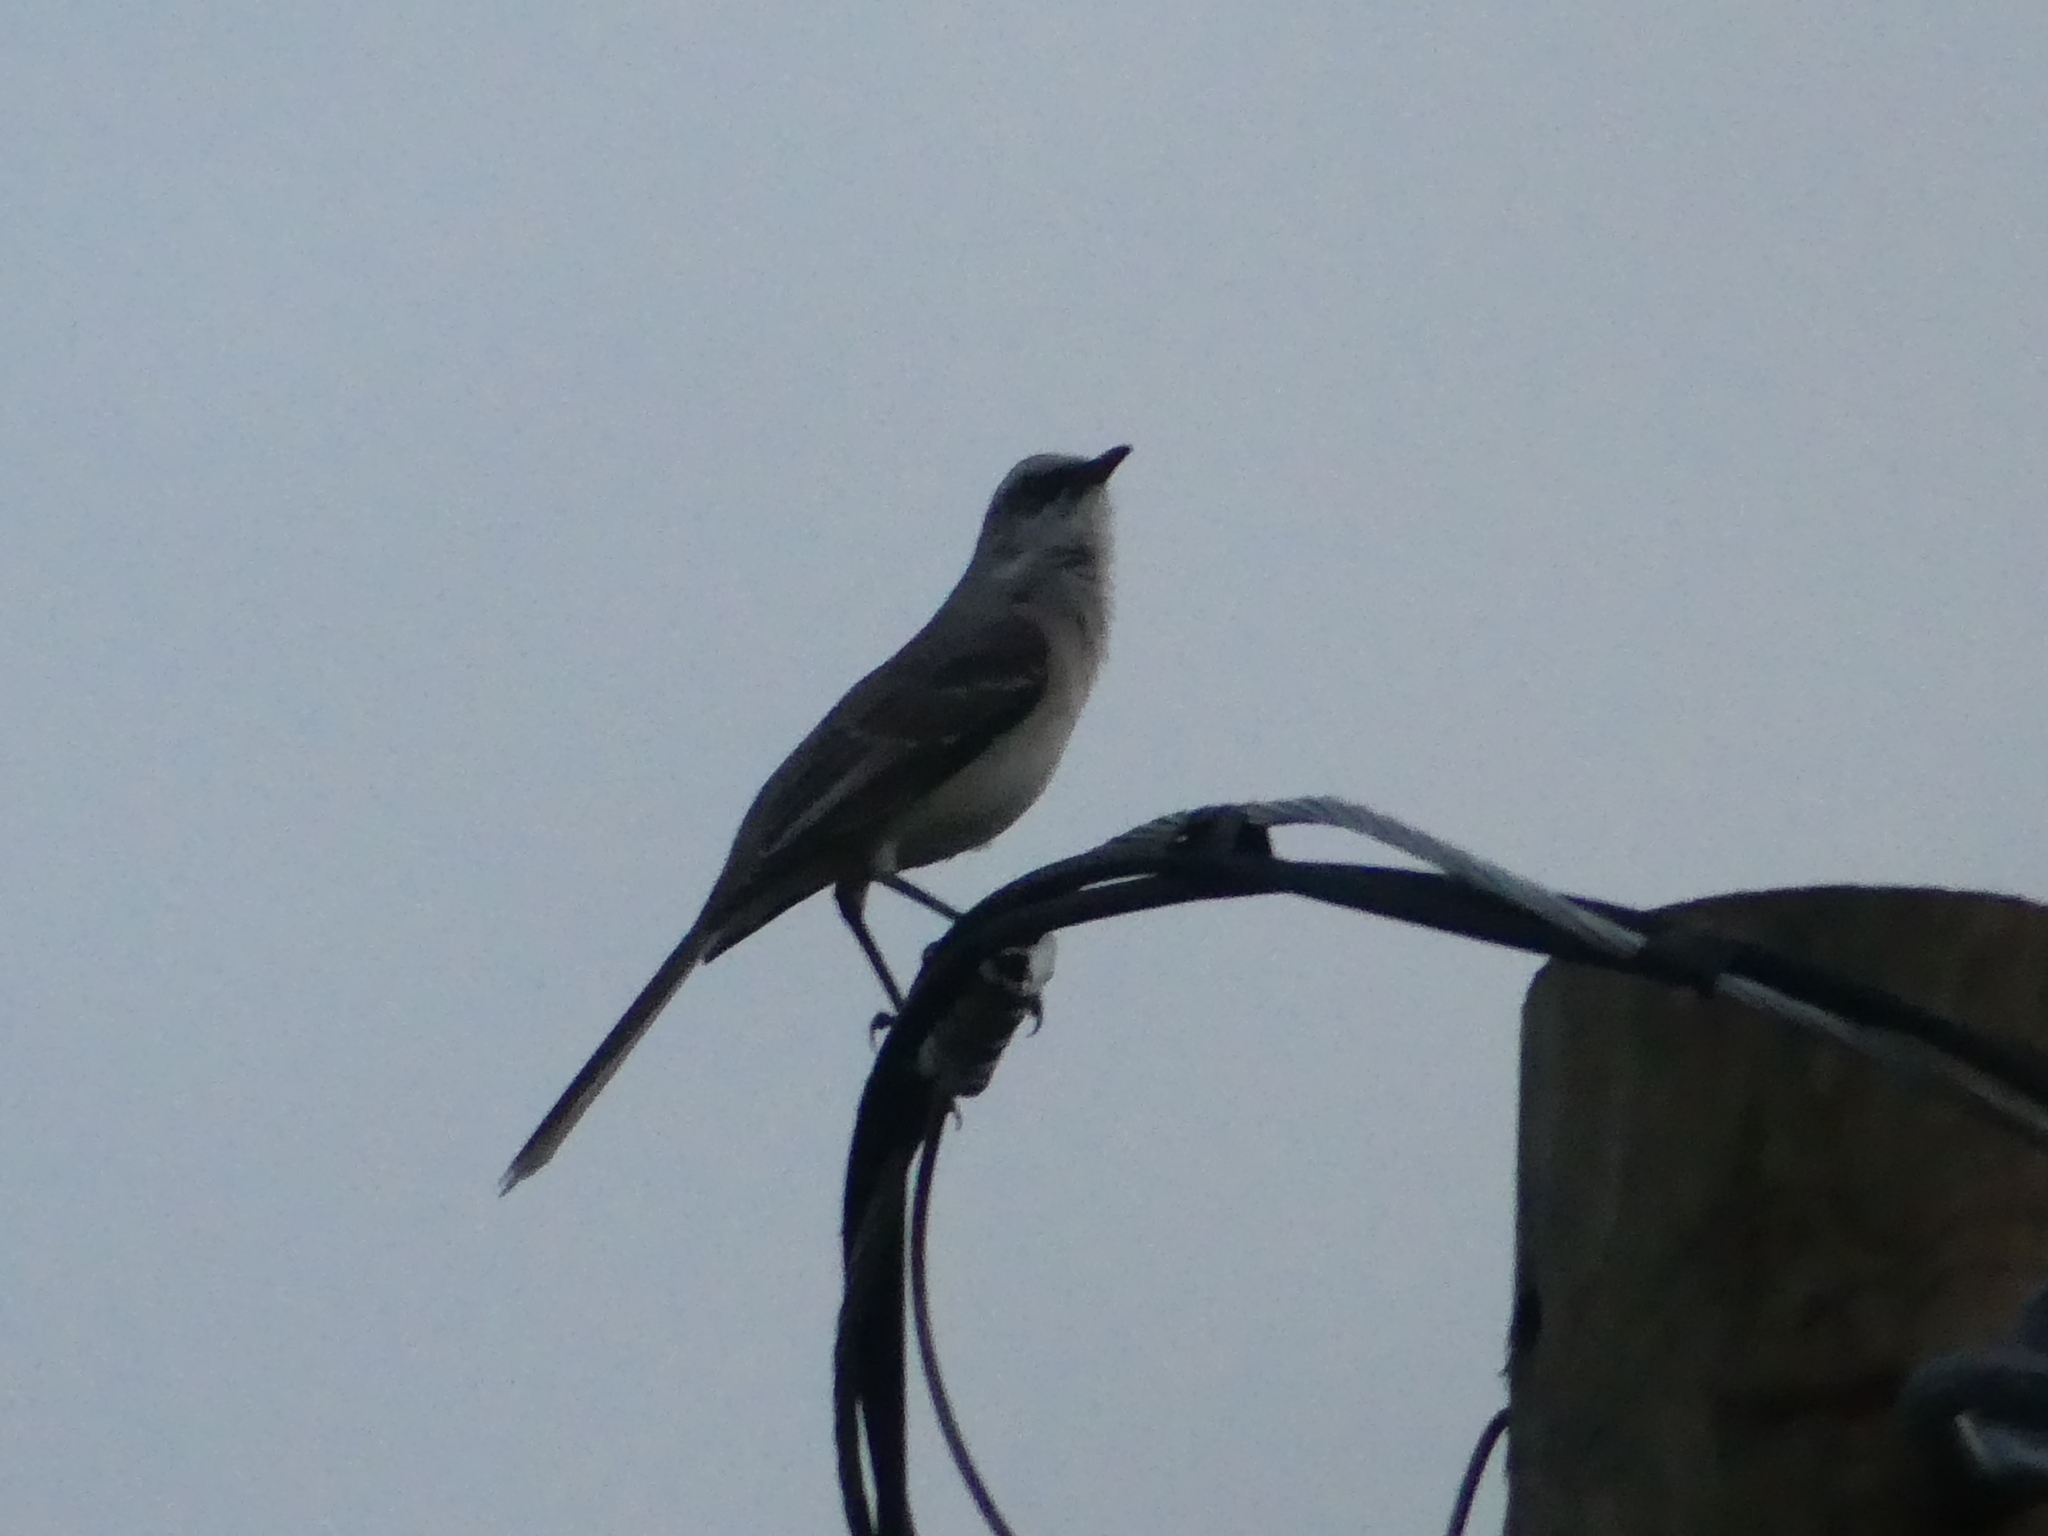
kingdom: Animalia
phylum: Chordata
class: Aves
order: Passeriformes
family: Mimidae
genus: Mimus
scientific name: Mimus gilvus
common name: Tropical mockingbird
